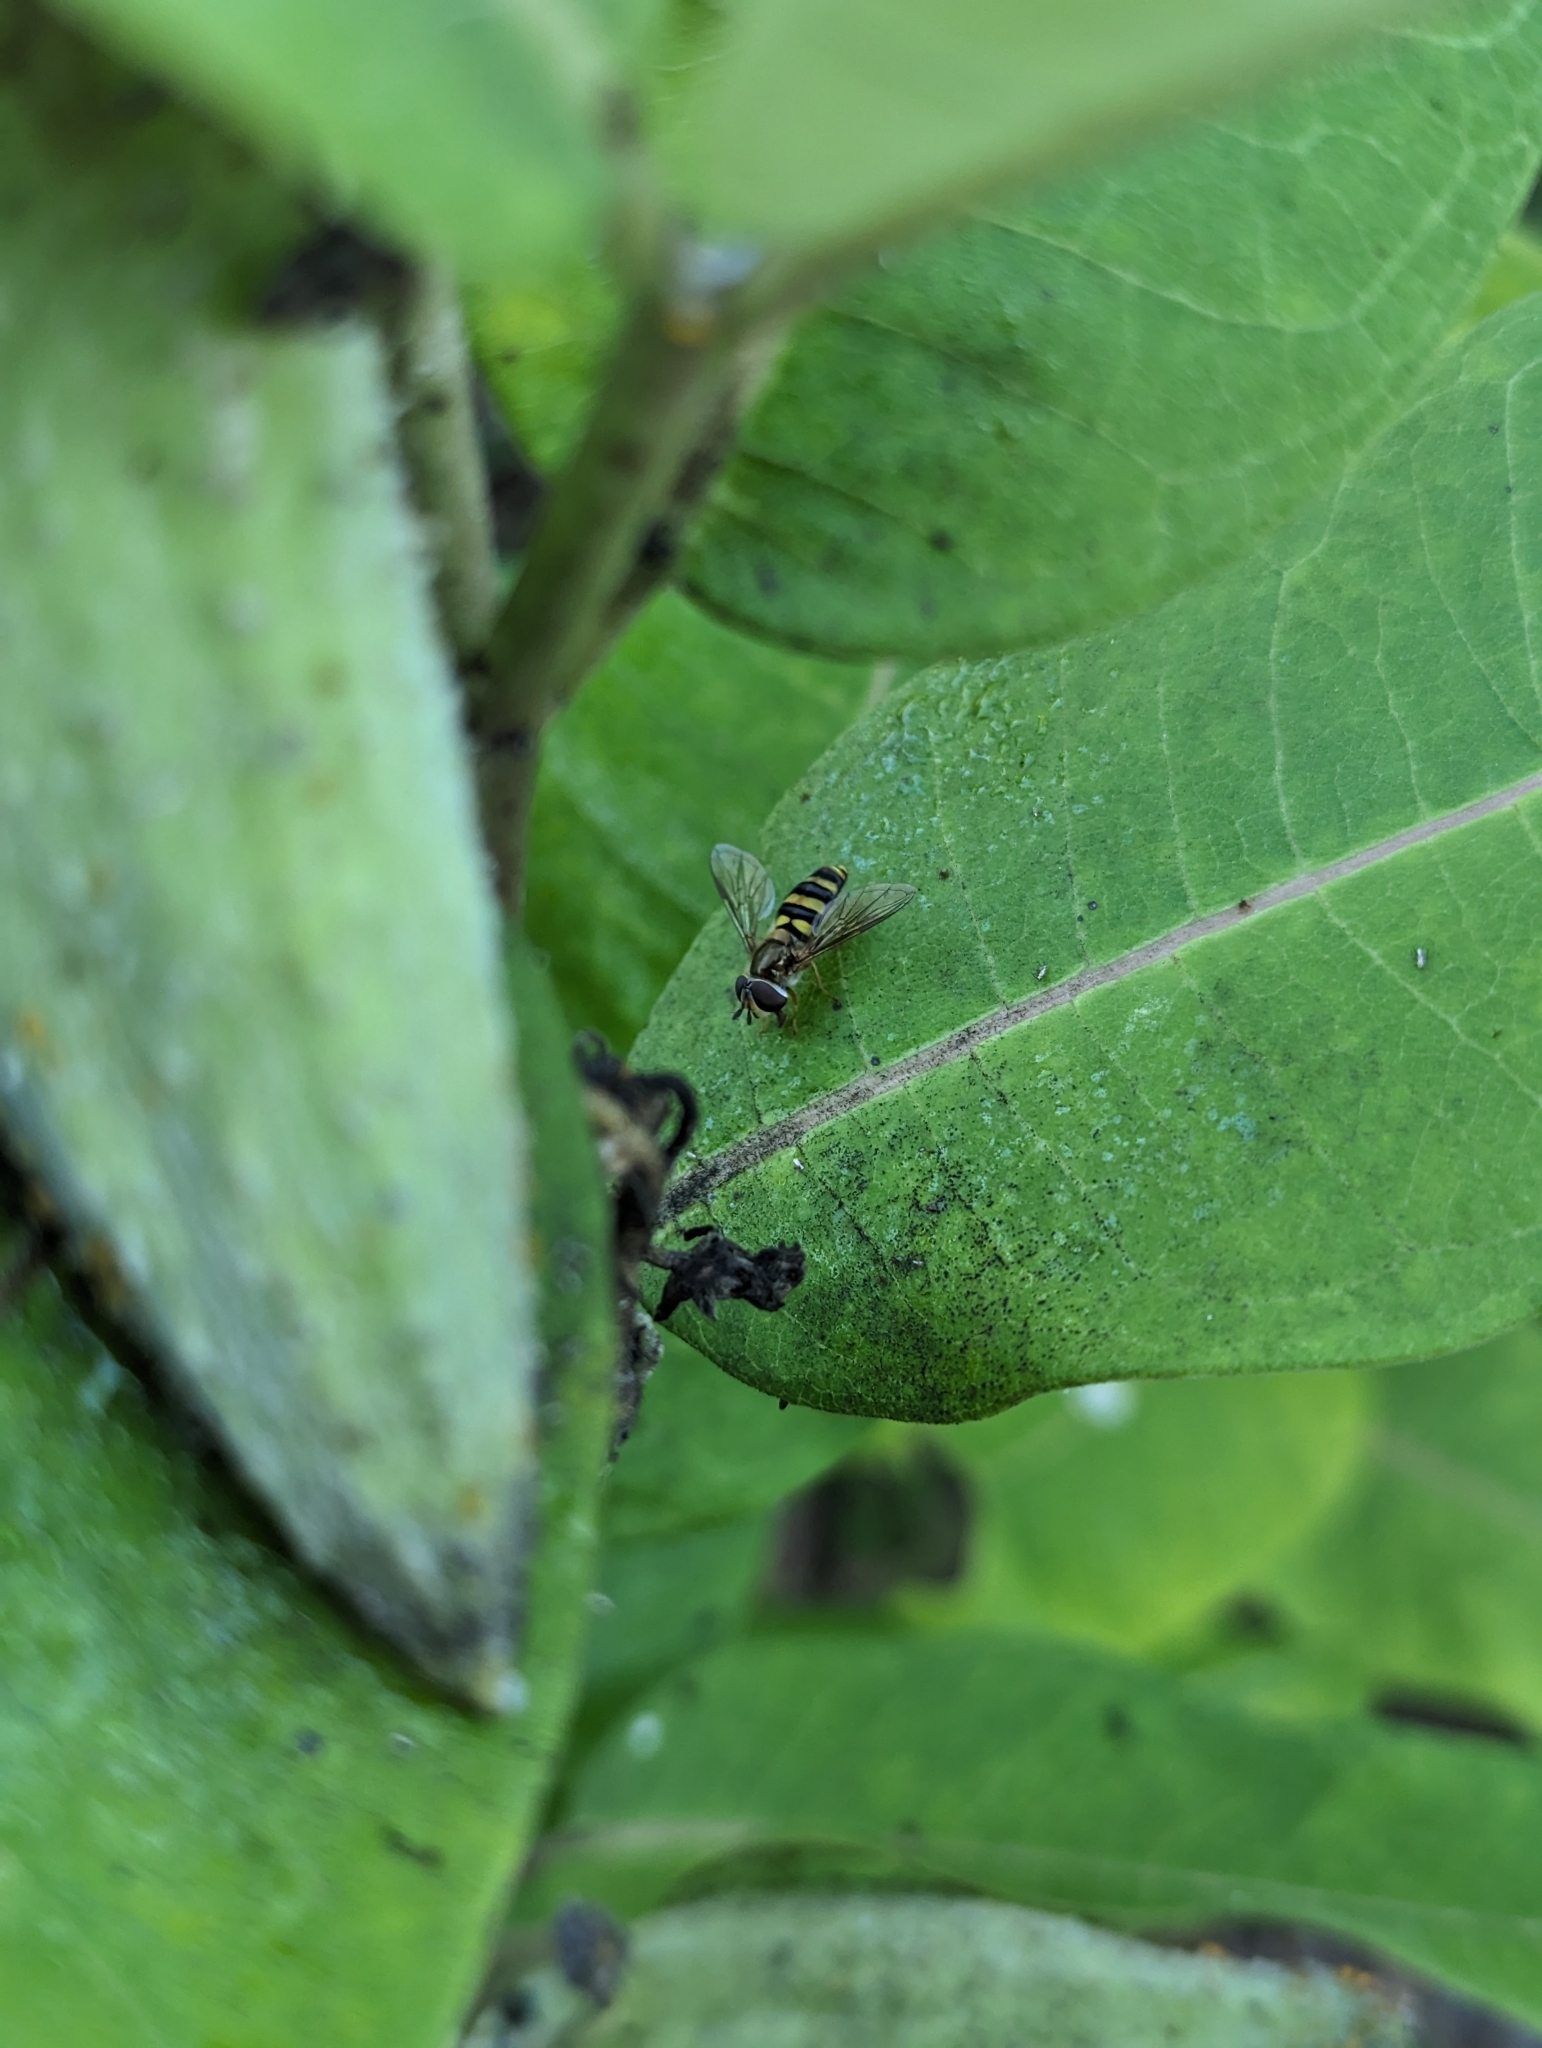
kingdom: Animalia
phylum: Arthropoda
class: Insecta
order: Diptera
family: Syrphidae
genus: Eupeodes
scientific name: Eupeodes
